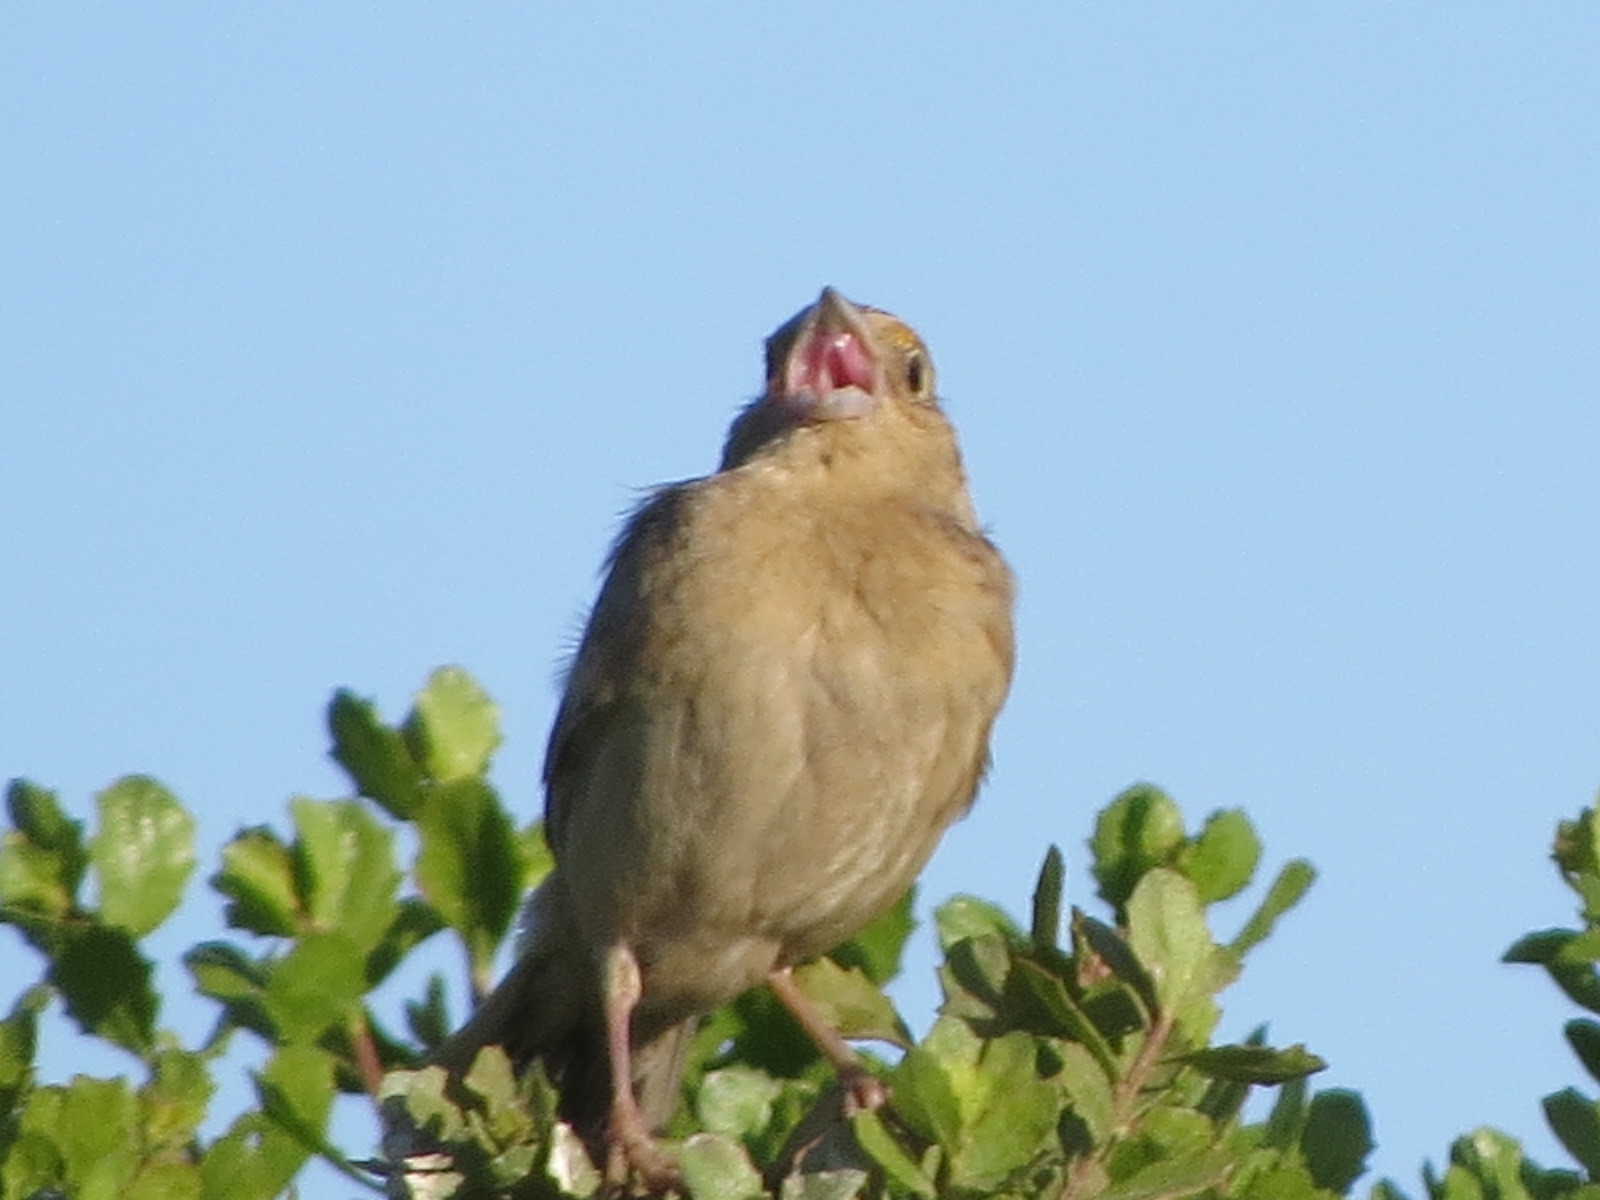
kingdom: Animalia
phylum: Chordata
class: Aves
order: Passeriformes
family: Passerellidae
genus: Ammodramus
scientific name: Ammodramus savannarum
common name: Grasshopper sparrow
